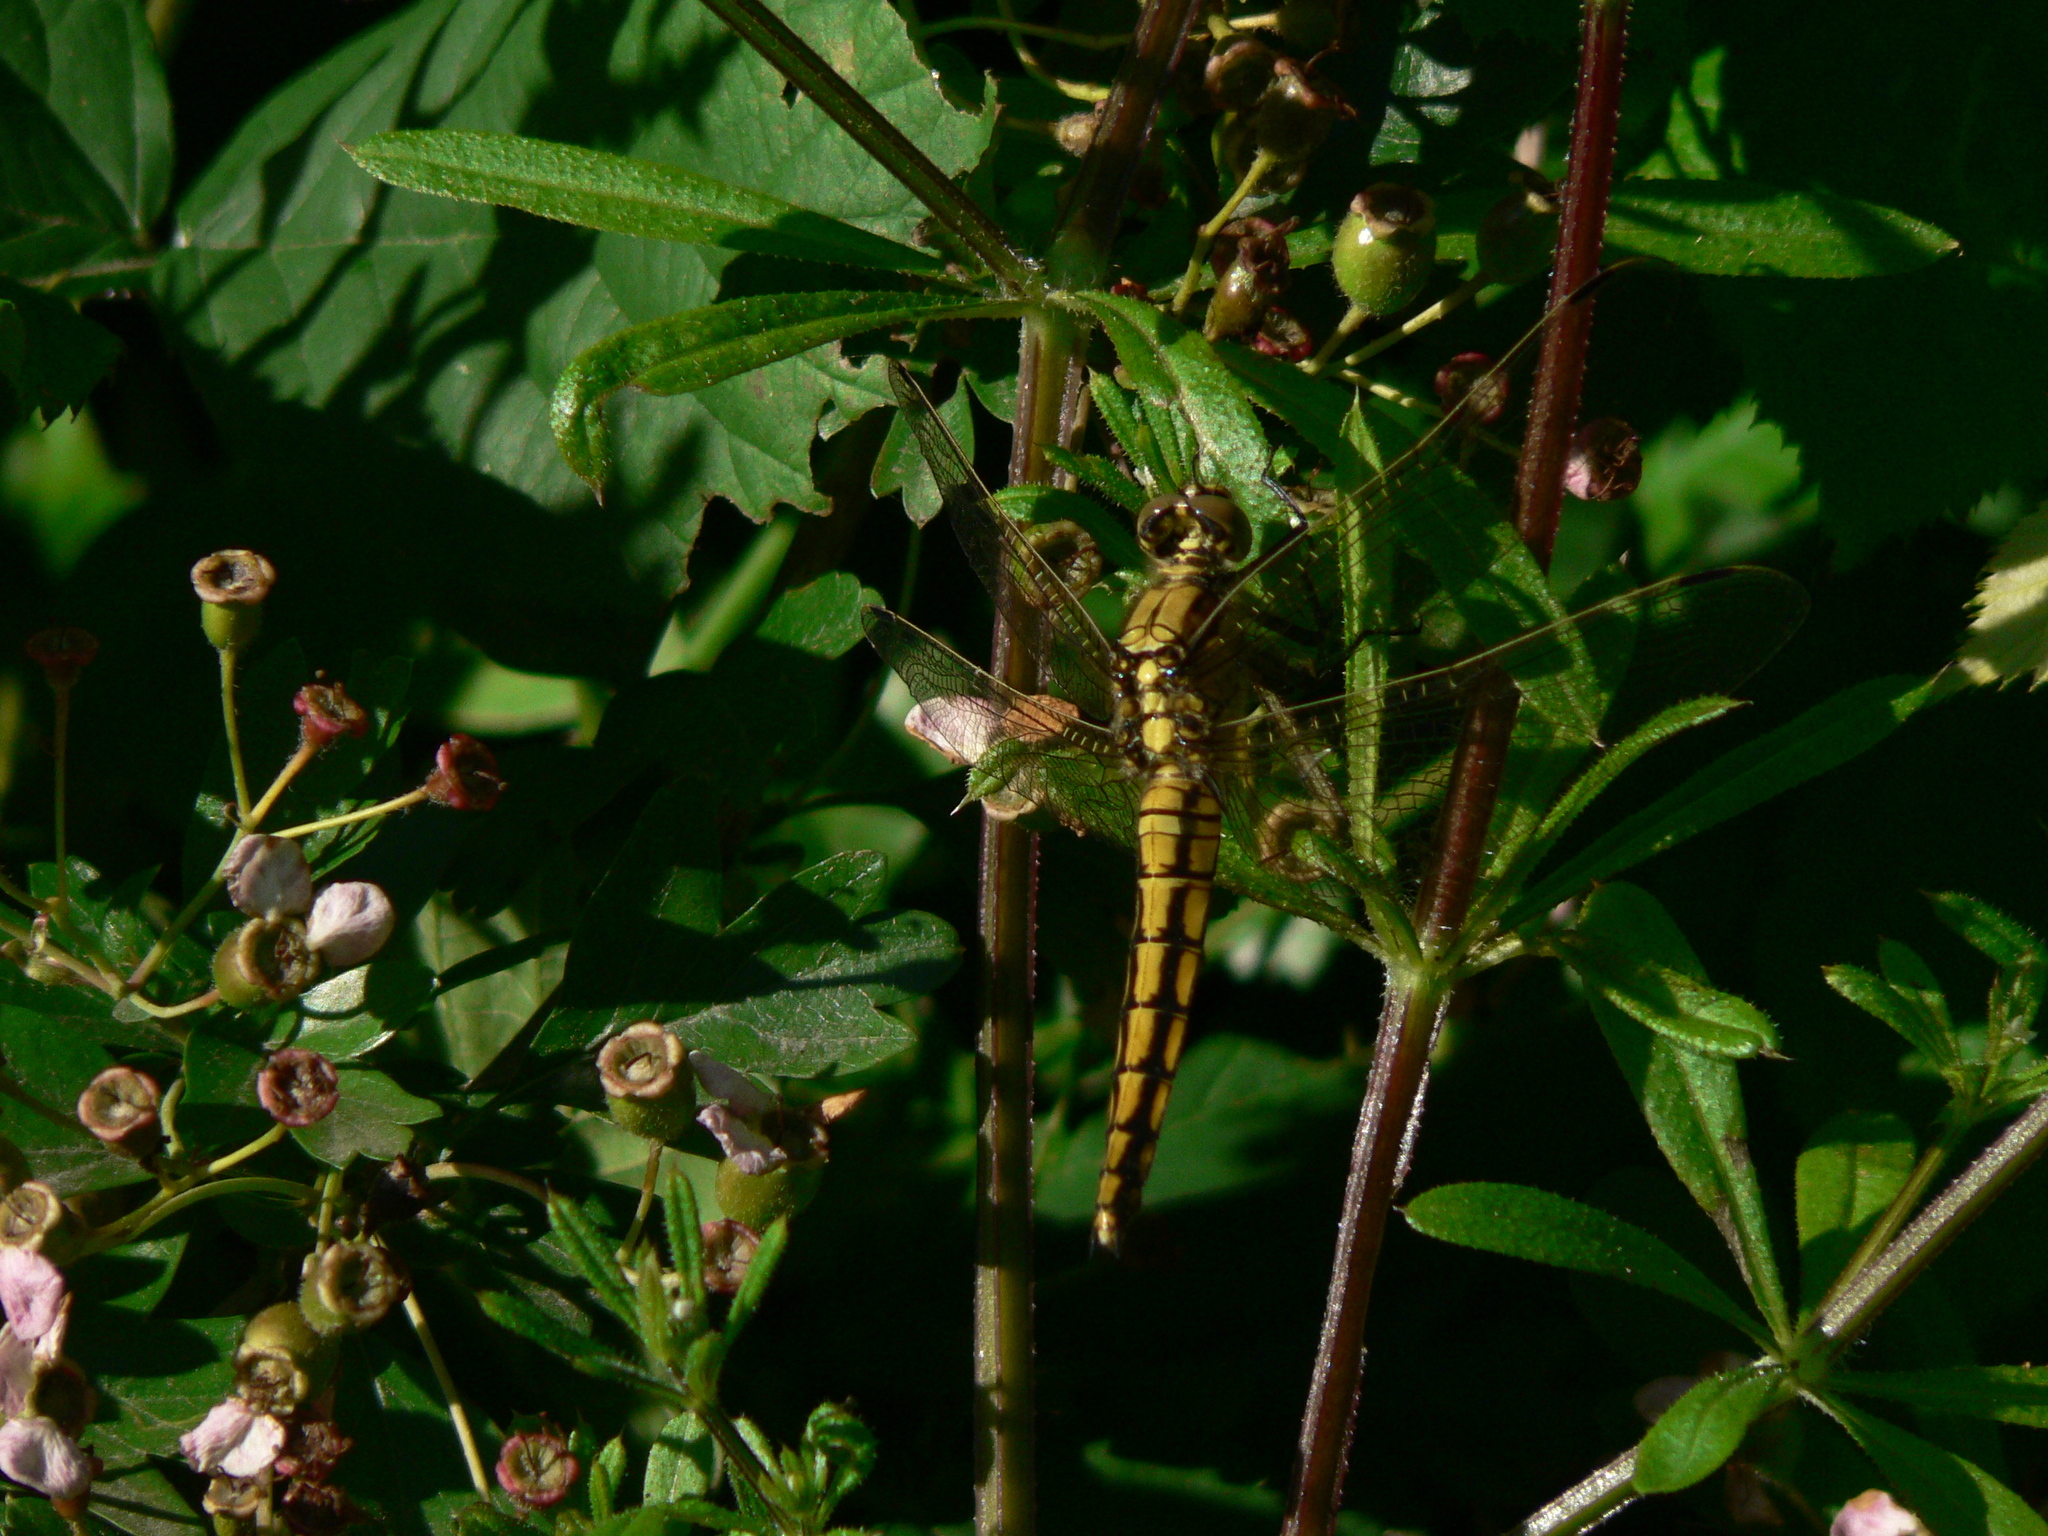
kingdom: Animalia
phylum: Arthropoda
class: Insecta
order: Odonata
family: Libellulidae
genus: Orthetrum
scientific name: Orthetrum cancellatum
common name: Black-tailed skimmer
